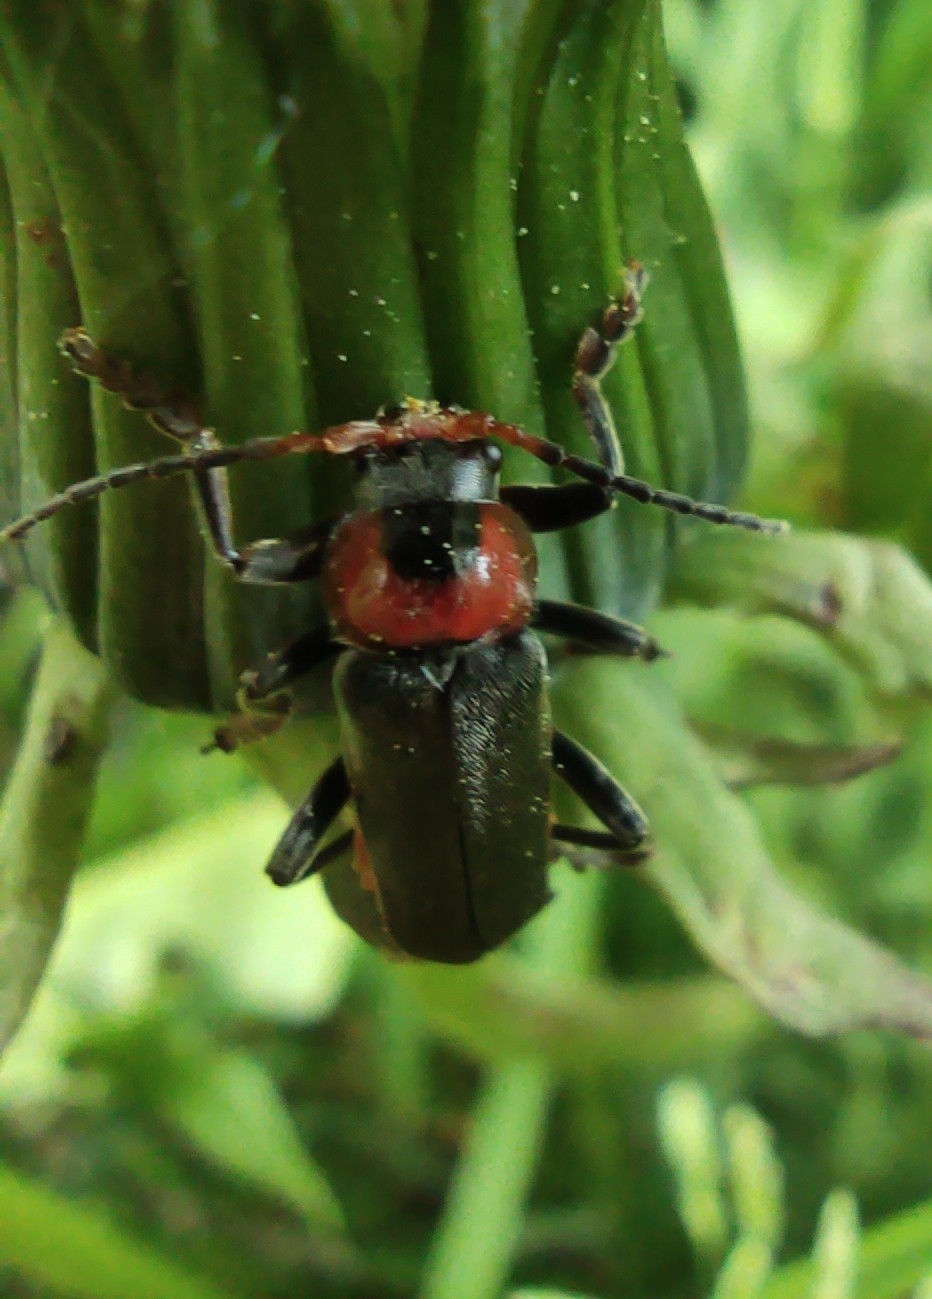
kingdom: Animalia
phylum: Arthropoda
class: Insecta
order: Coleoptera
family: Cantharidae
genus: Cantharis
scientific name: Cantharis fusca
